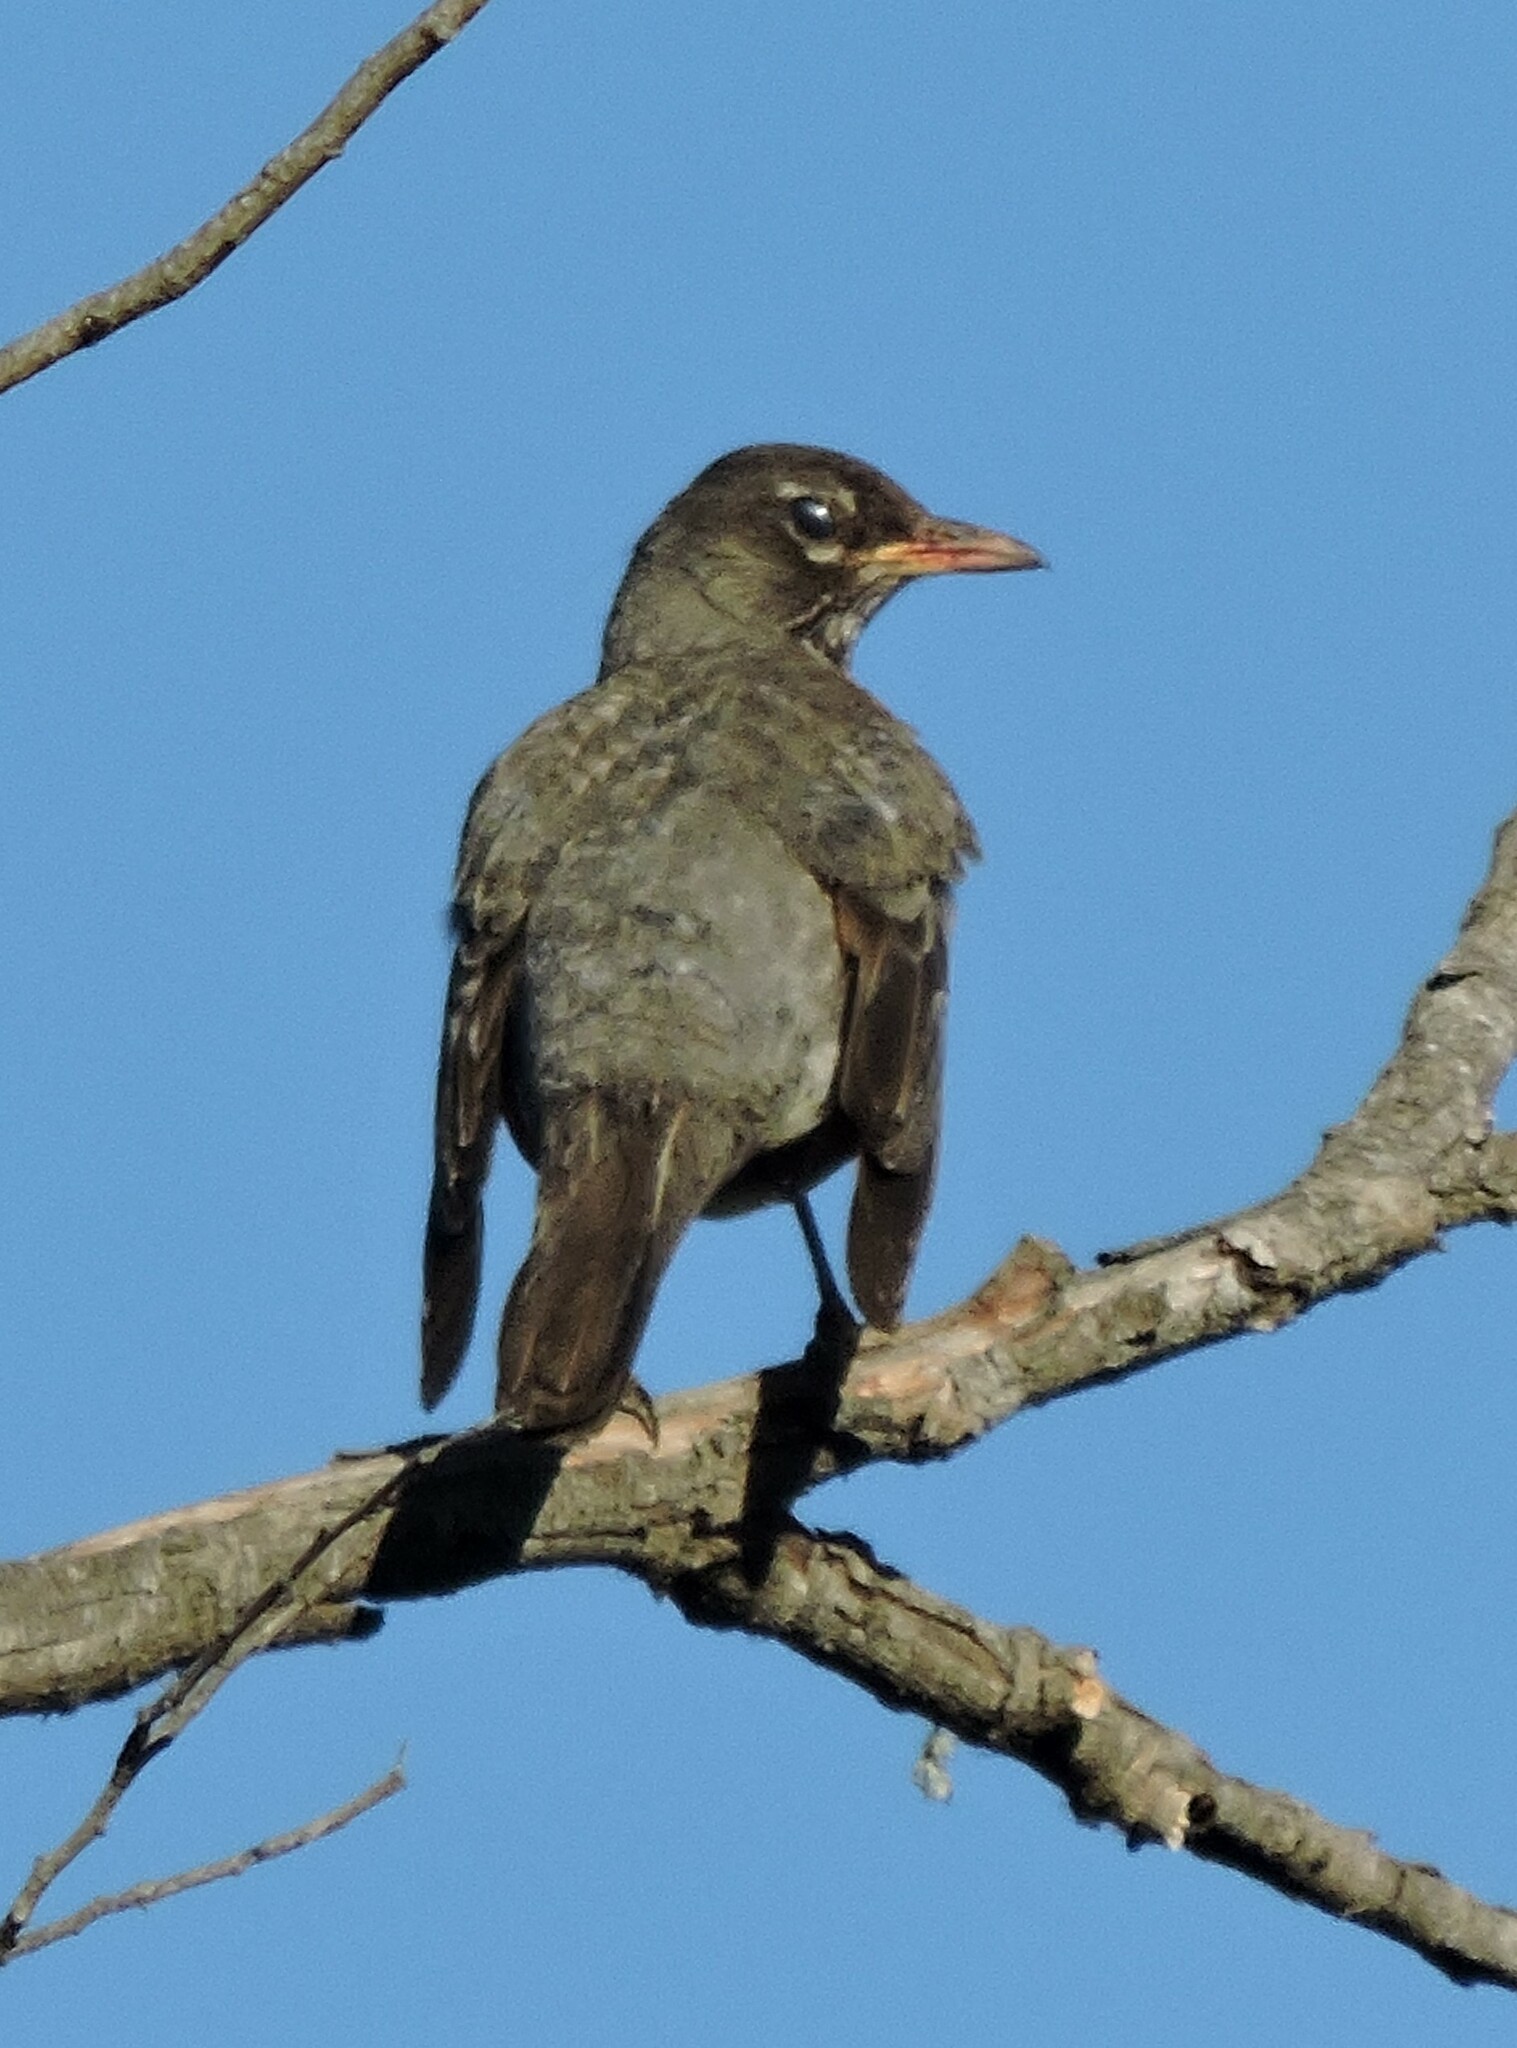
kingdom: Animalia
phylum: Chordata
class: Aves
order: Passeriformes
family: Turdidae
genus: Turdus
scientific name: Turdus migratorius
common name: American robin
